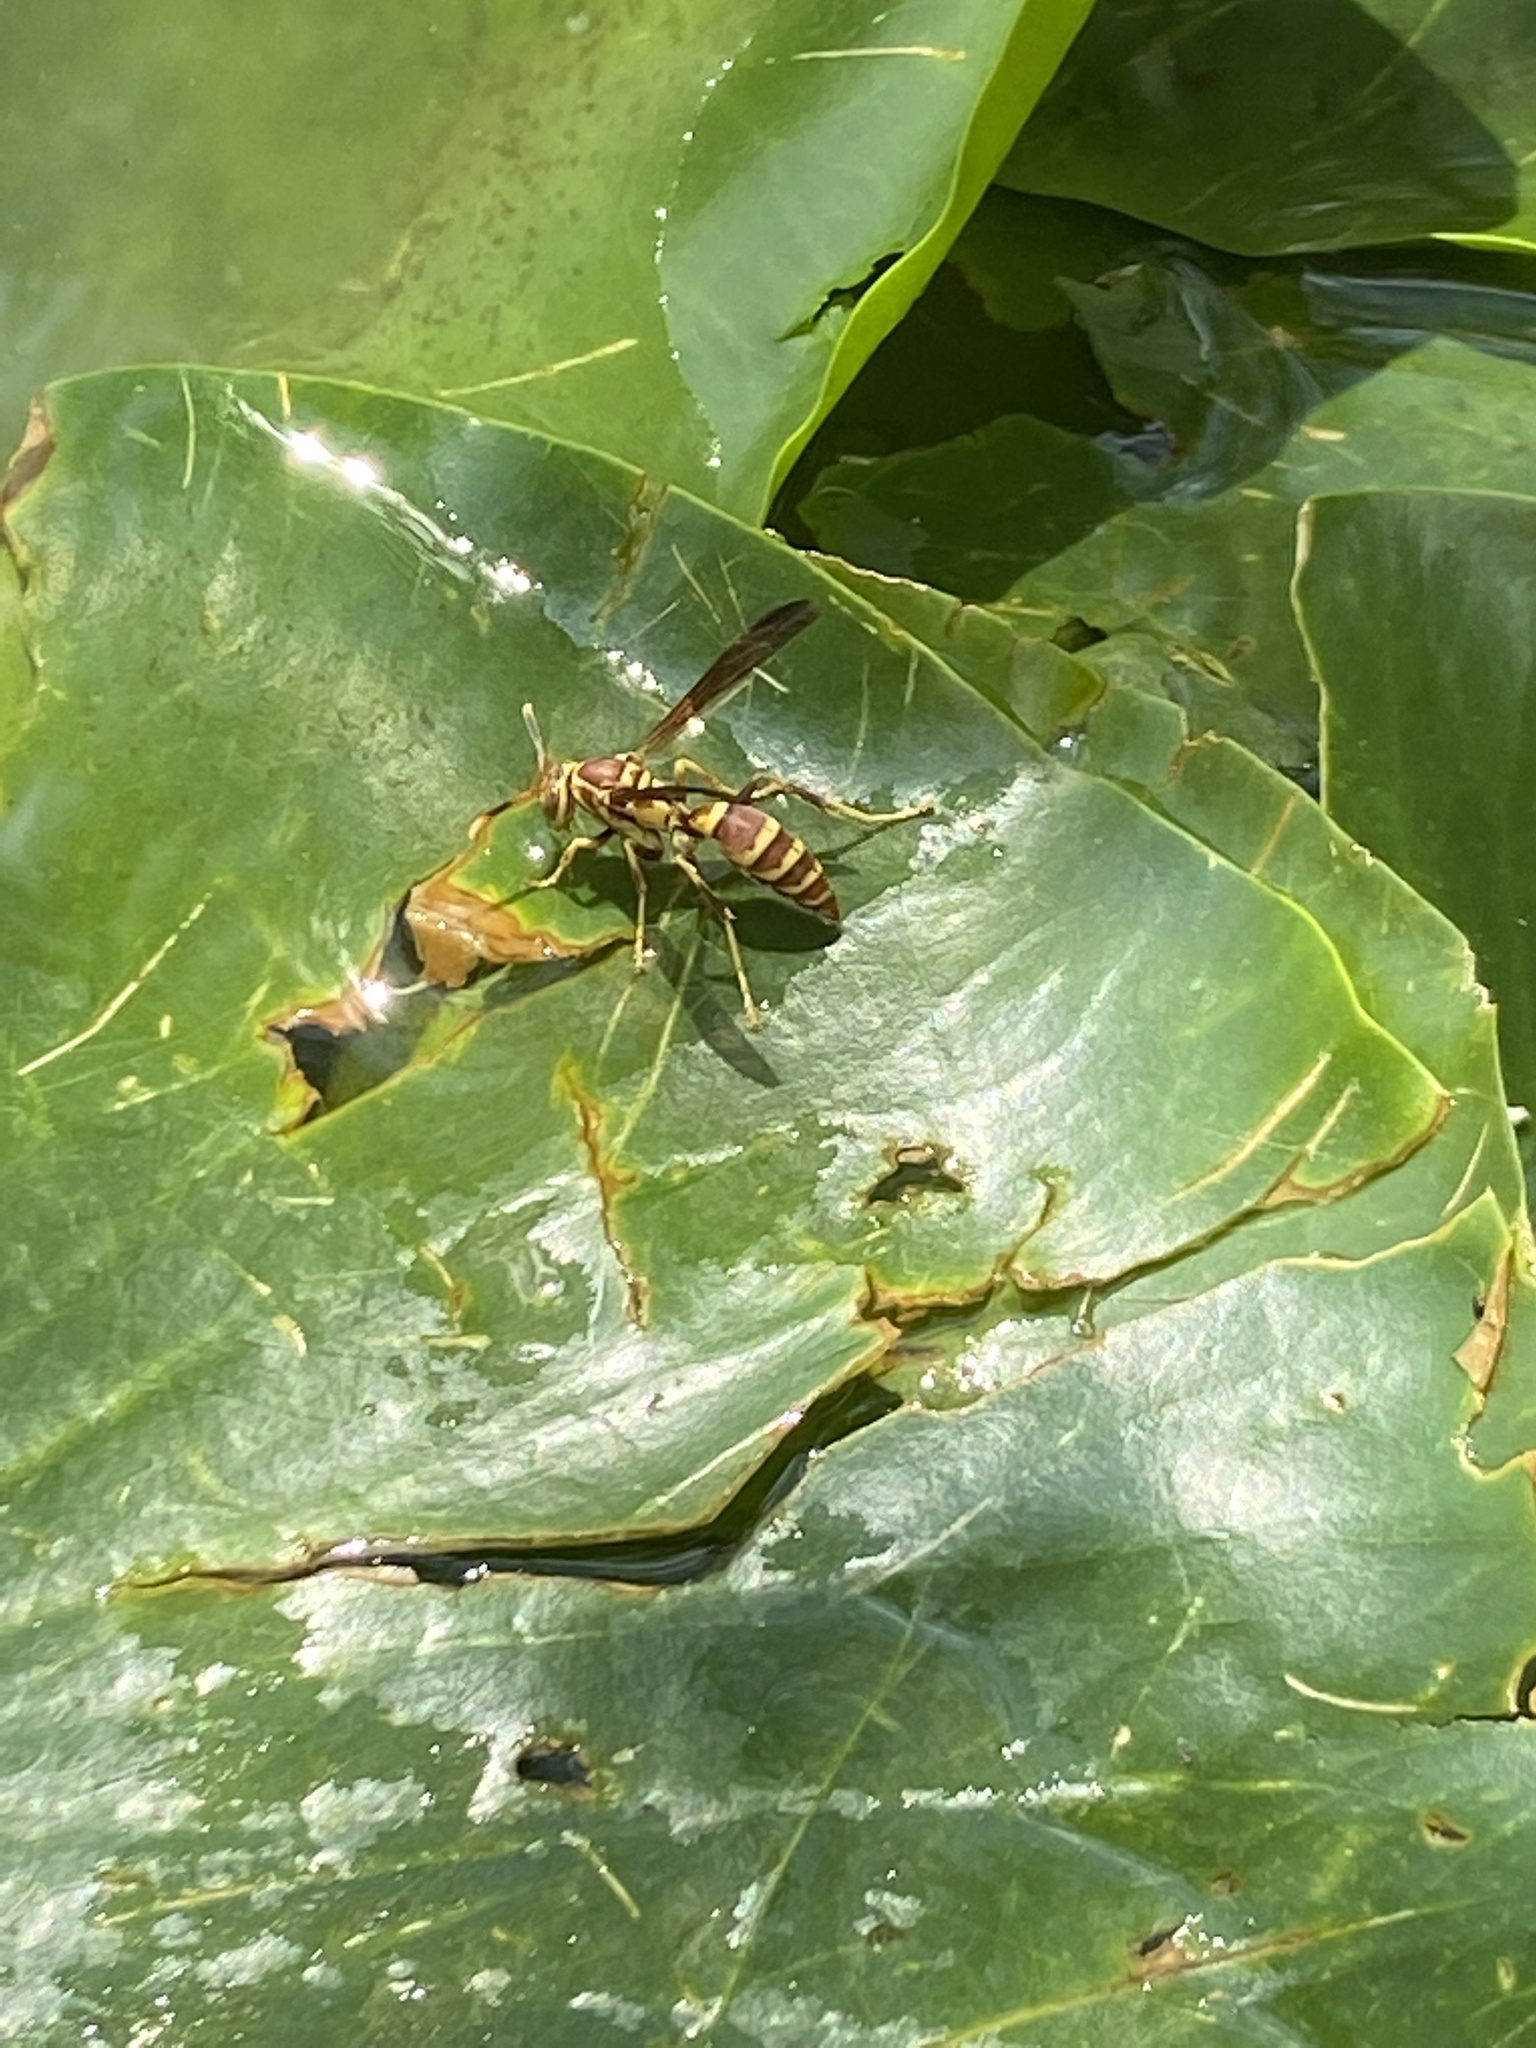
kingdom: Animalia
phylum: Arthropoda
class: Insecta
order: Hymenoptera
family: Eumenidae
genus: Polistes
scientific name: Polistes exclamans
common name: Paper wasp
